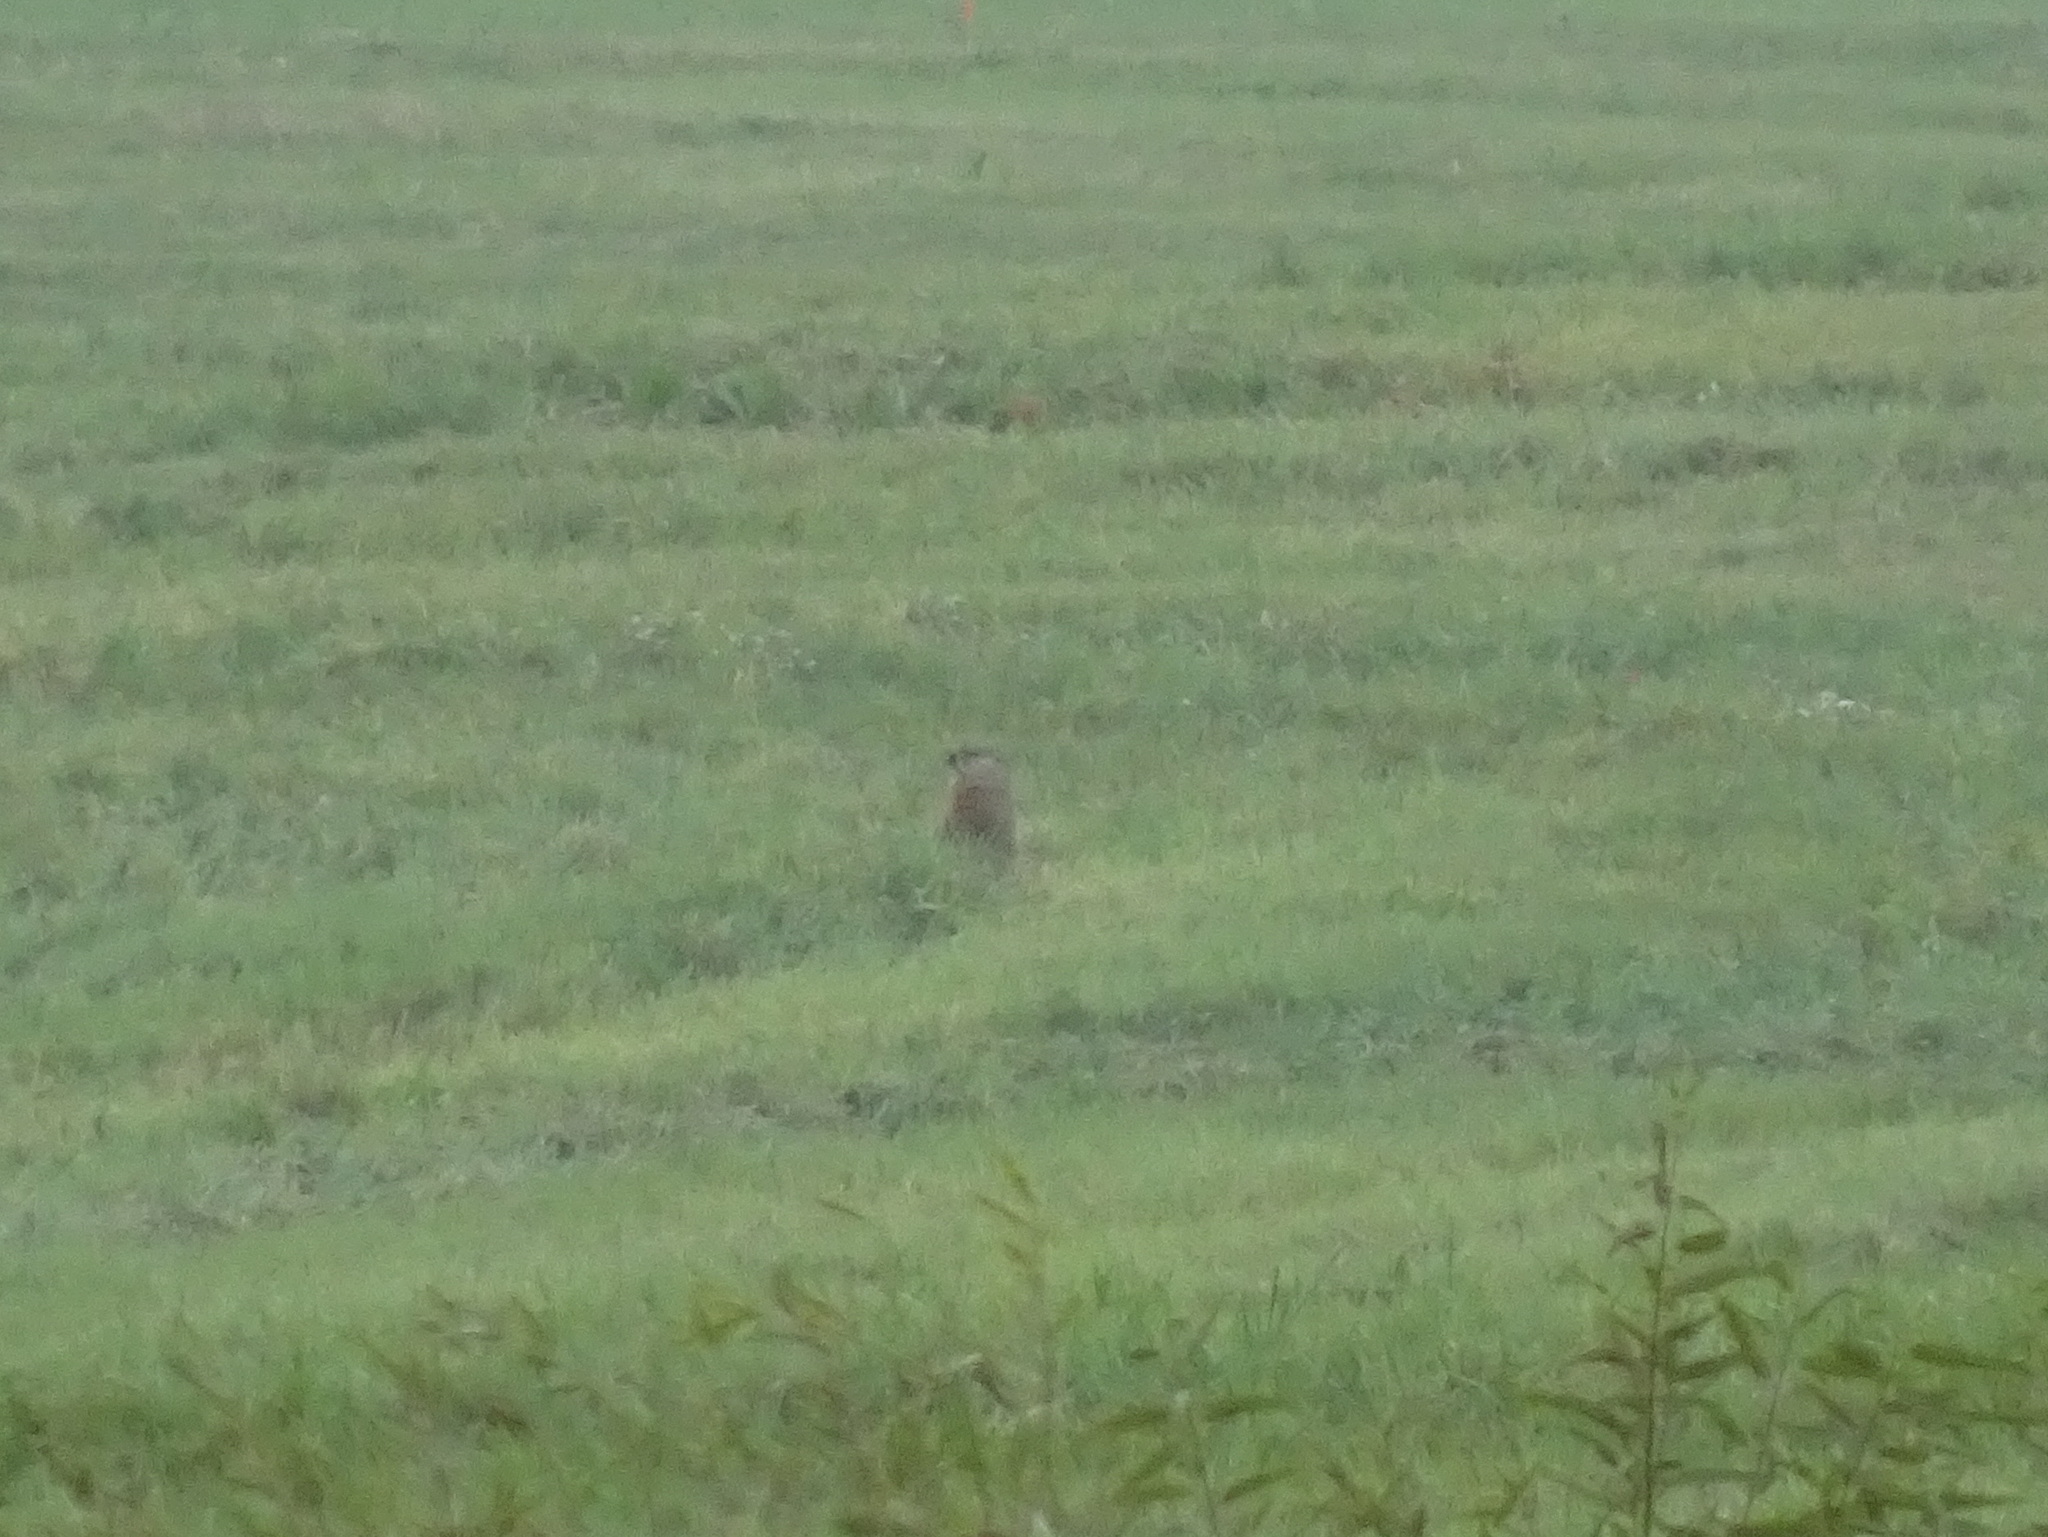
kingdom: Animalia
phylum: Chordata
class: Mammalia
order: Rodentia
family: Sciuridae
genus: Marmota
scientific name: Marmota monax
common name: Groundhog
